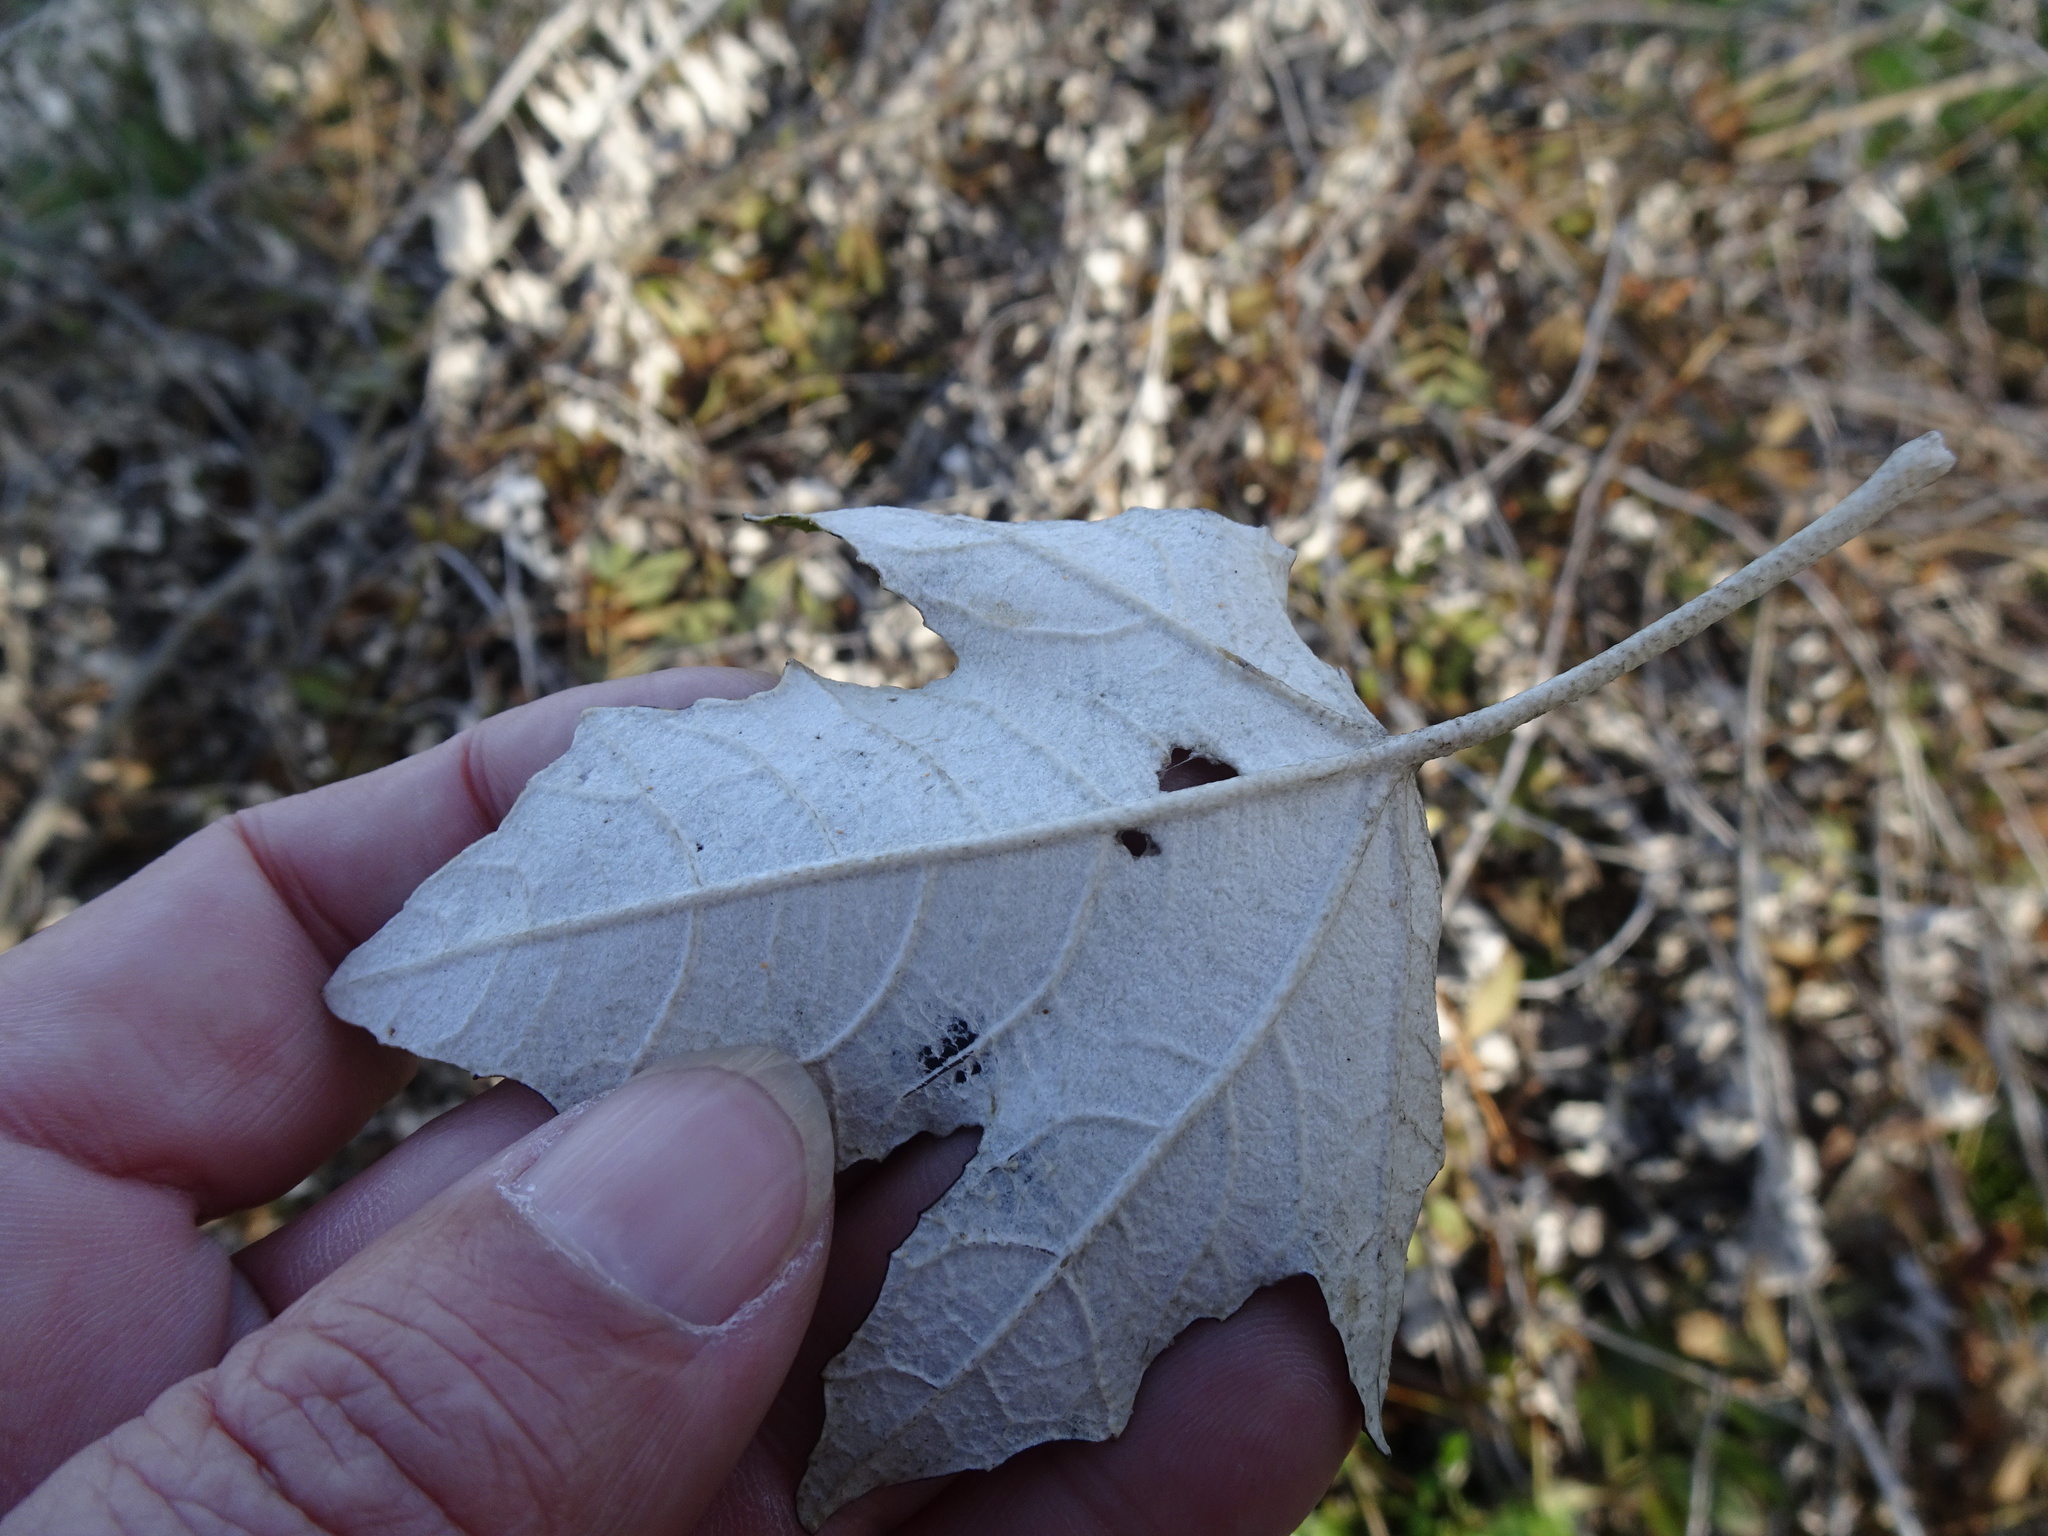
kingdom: Plantae
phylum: Tracheophyta
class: Magnoliopsida
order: Malpighiales
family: Salicaceae
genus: Populus
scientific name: Populus alba
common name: White poplar
